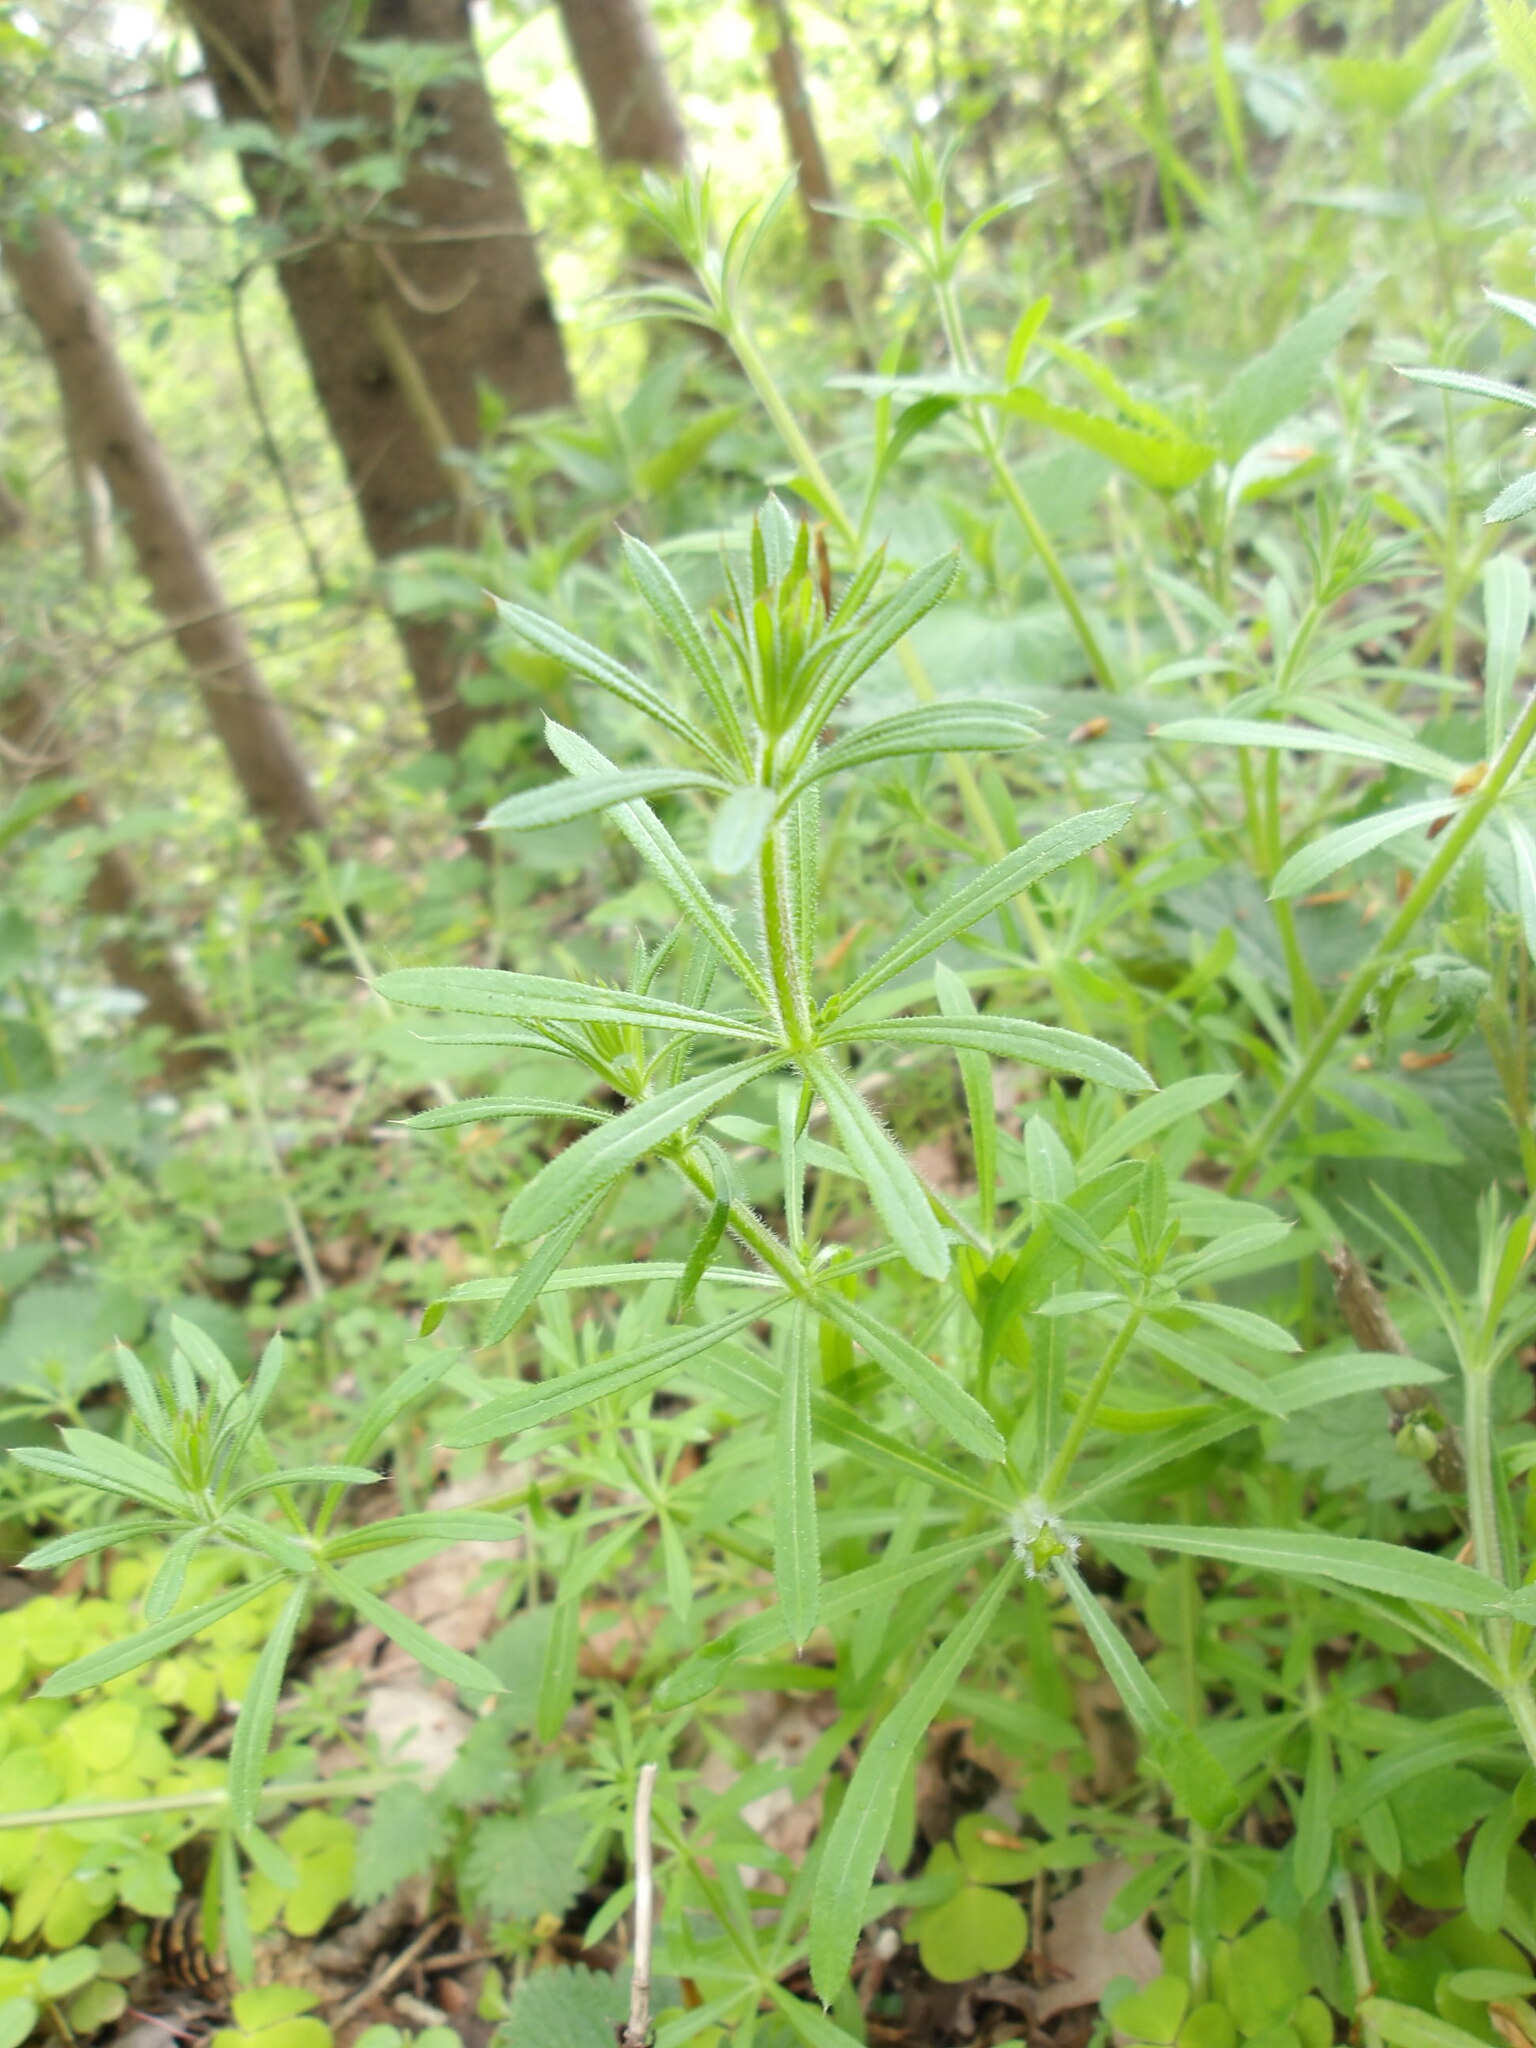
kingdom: Plantae
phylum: Tracheophyta
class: Magnoliopsida
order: Gentianales
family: Rubiaceae
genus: Galium
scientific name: Galium aparine
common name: Cleavers
